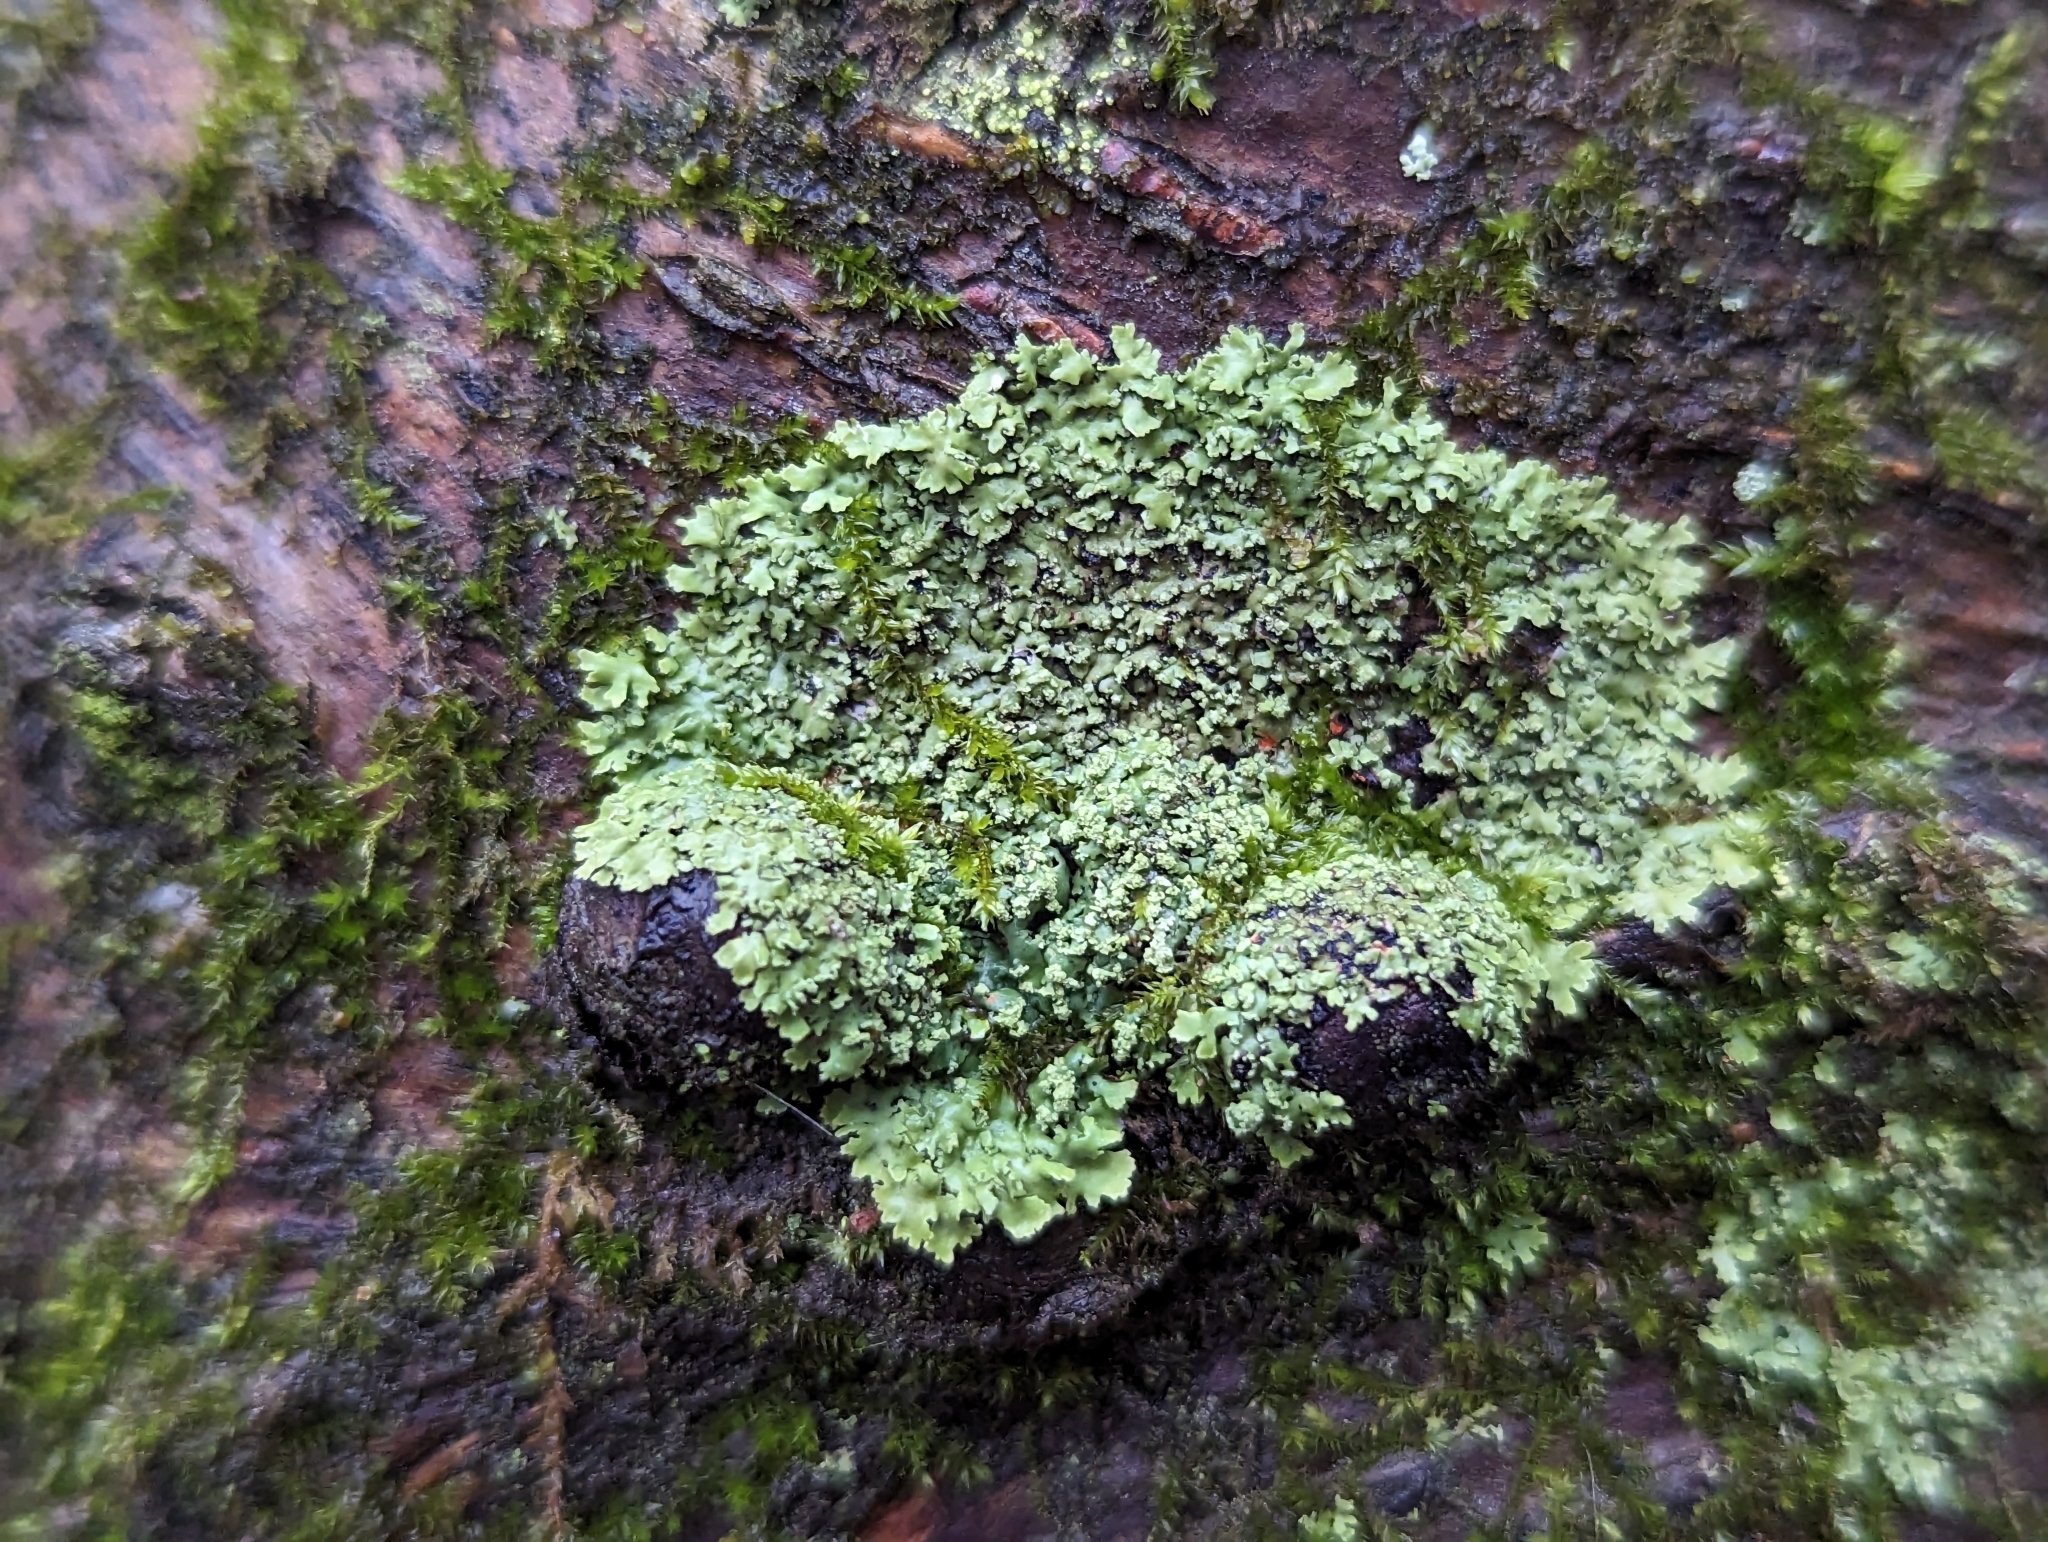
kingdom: Fungi
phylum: Ascomycota
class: Lecanoromycetes
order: Caliciales
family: Physciaceae
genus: Phaeophyscia
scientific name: Phaeophyscia rubropulchra
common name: Orange-cored shadow lichen
